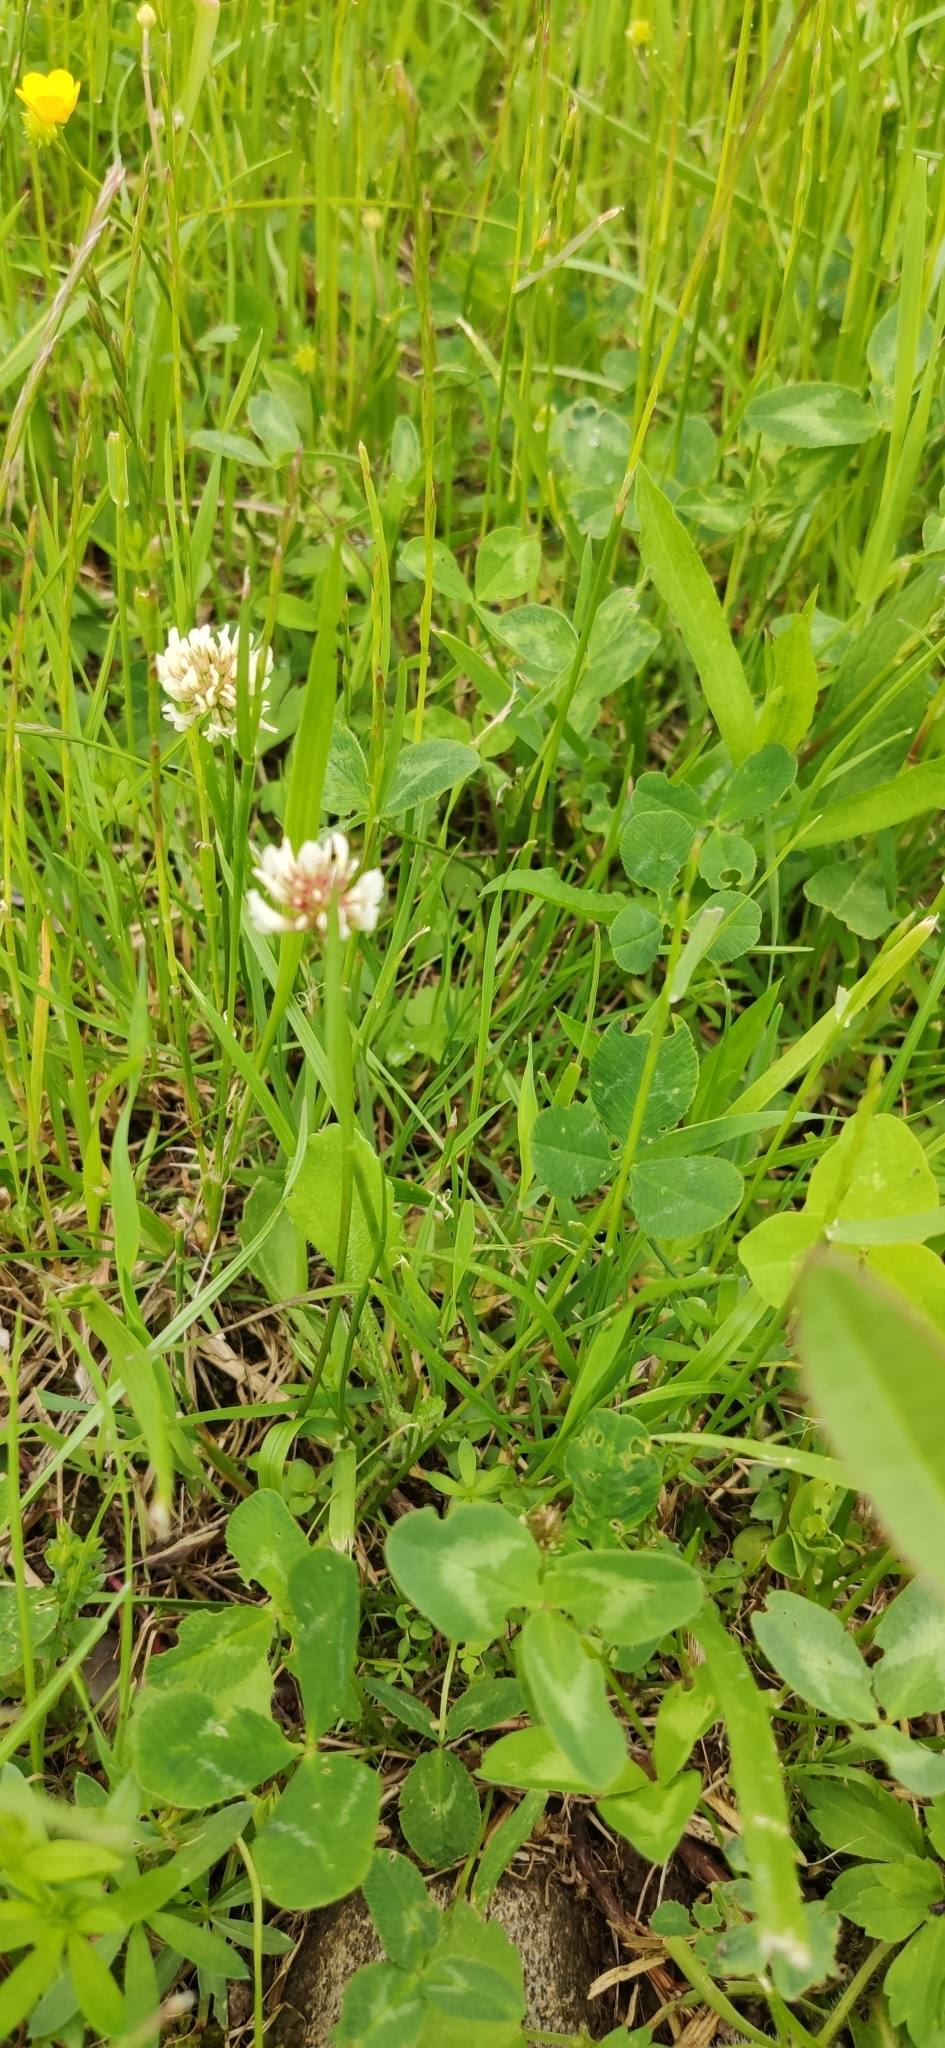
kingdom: Plantae
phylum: Tracheophyta
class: Magnoliopsida
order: Fabales
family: Fabaceae
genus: Trifolium
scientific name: Trifolium repens
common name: White clover
